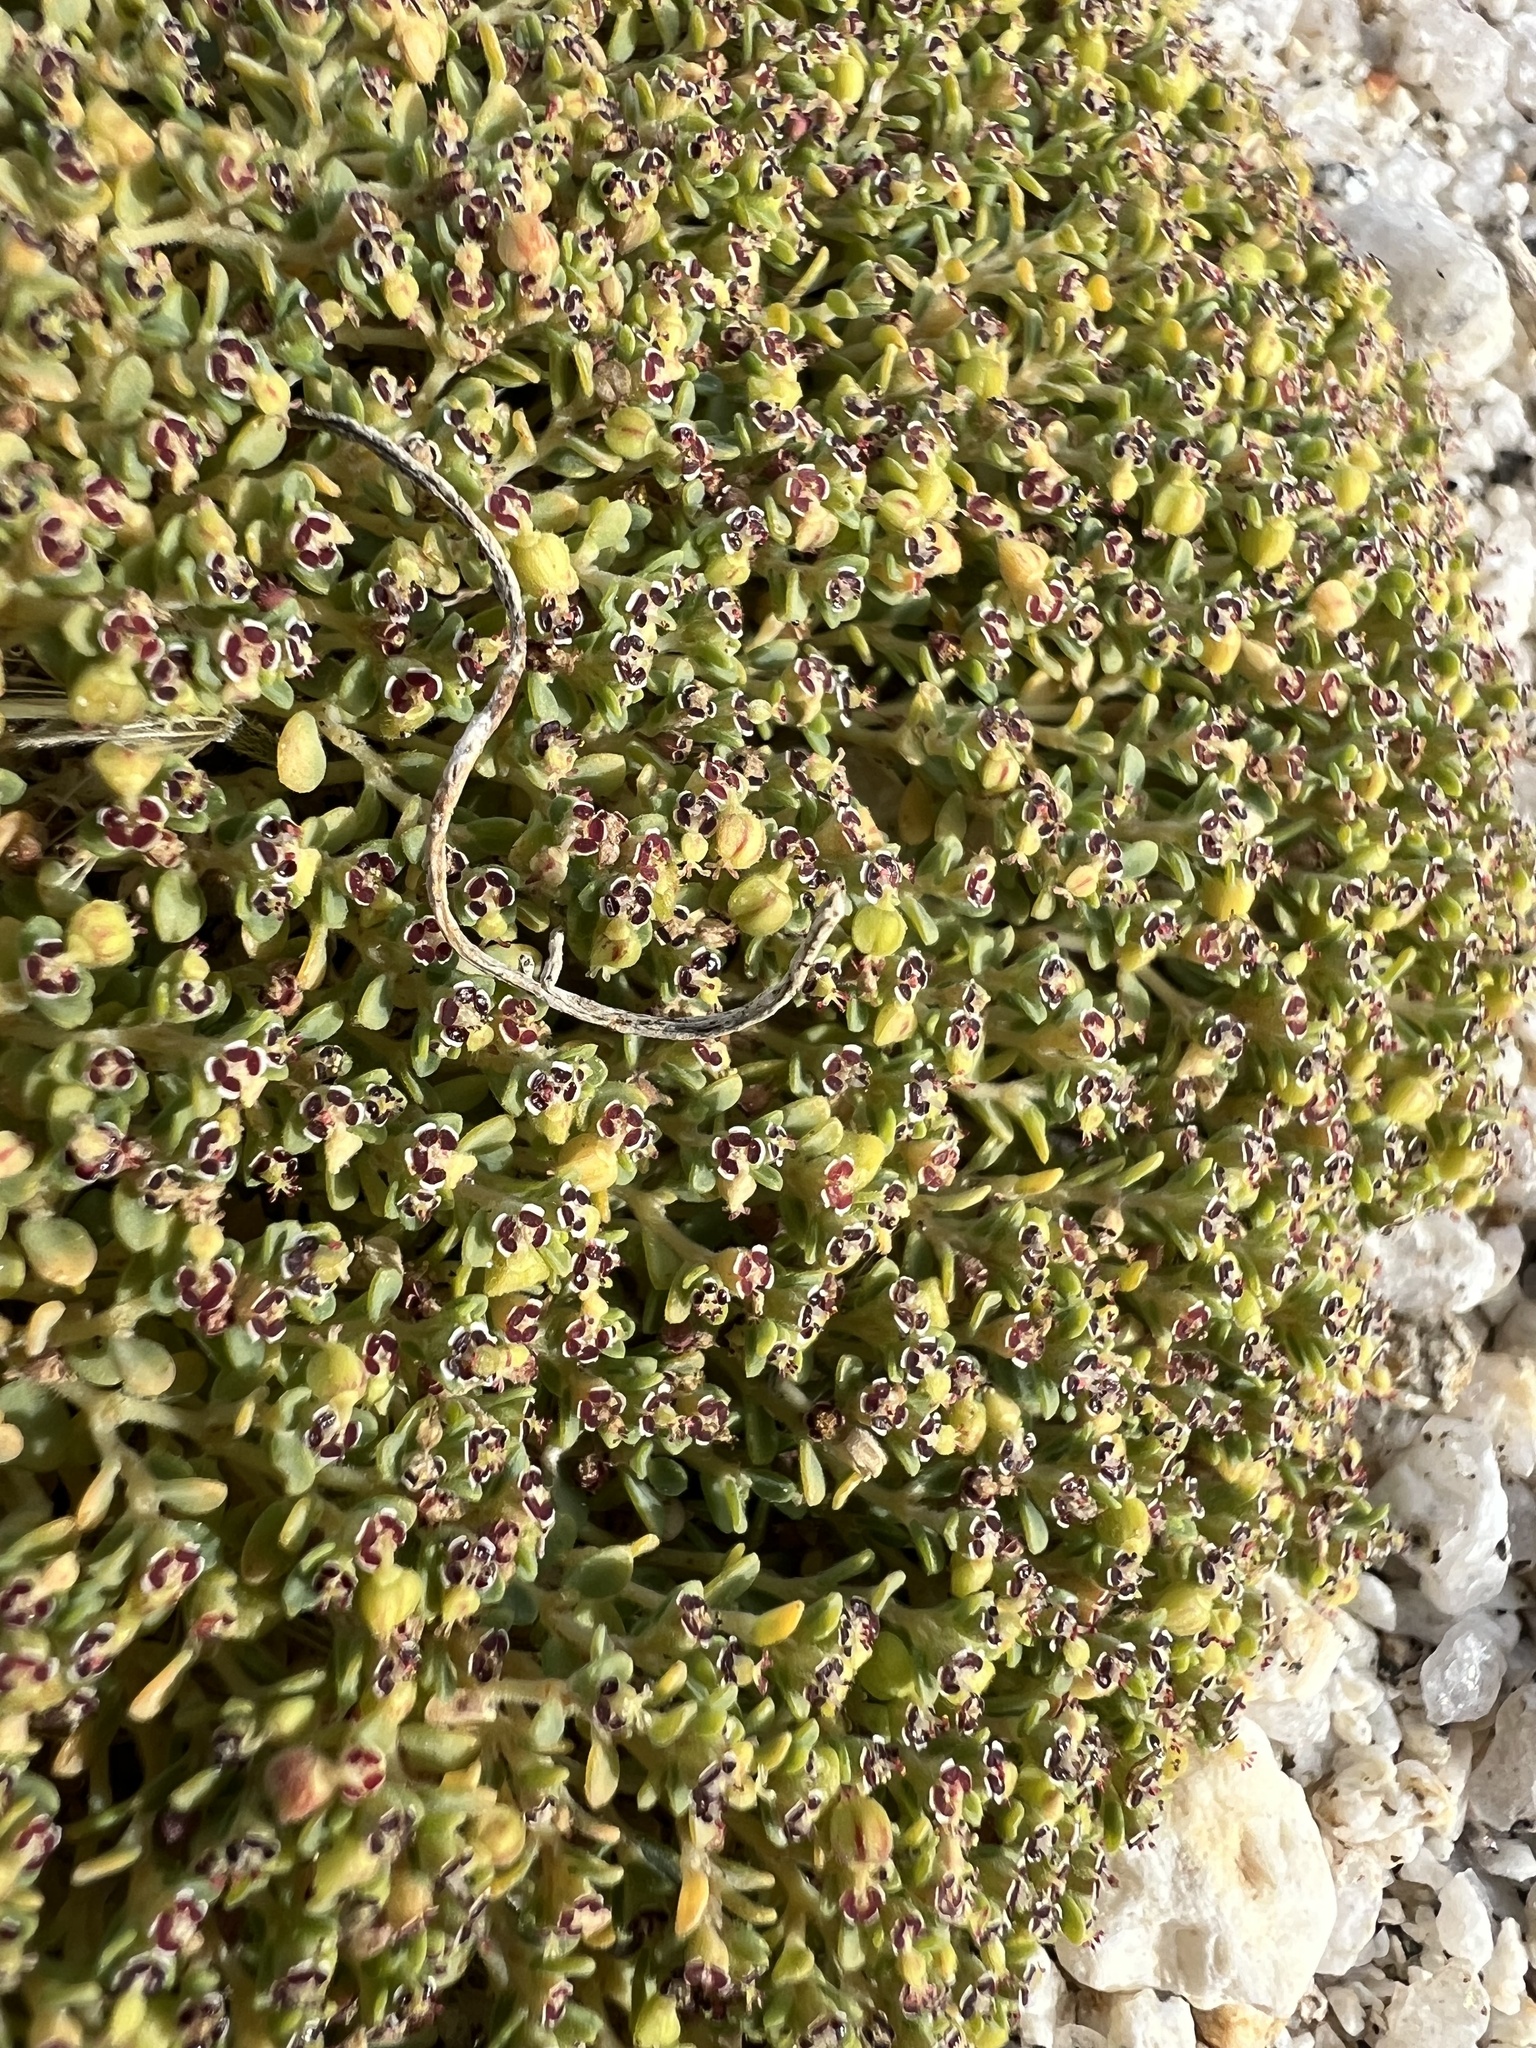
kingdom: Plantae
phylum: Tracheophyta
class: Magnoliopsida
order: Malpighiales
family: Euphorbiaceae
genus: Euphorbia
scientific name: Euphorbia polycarpa
